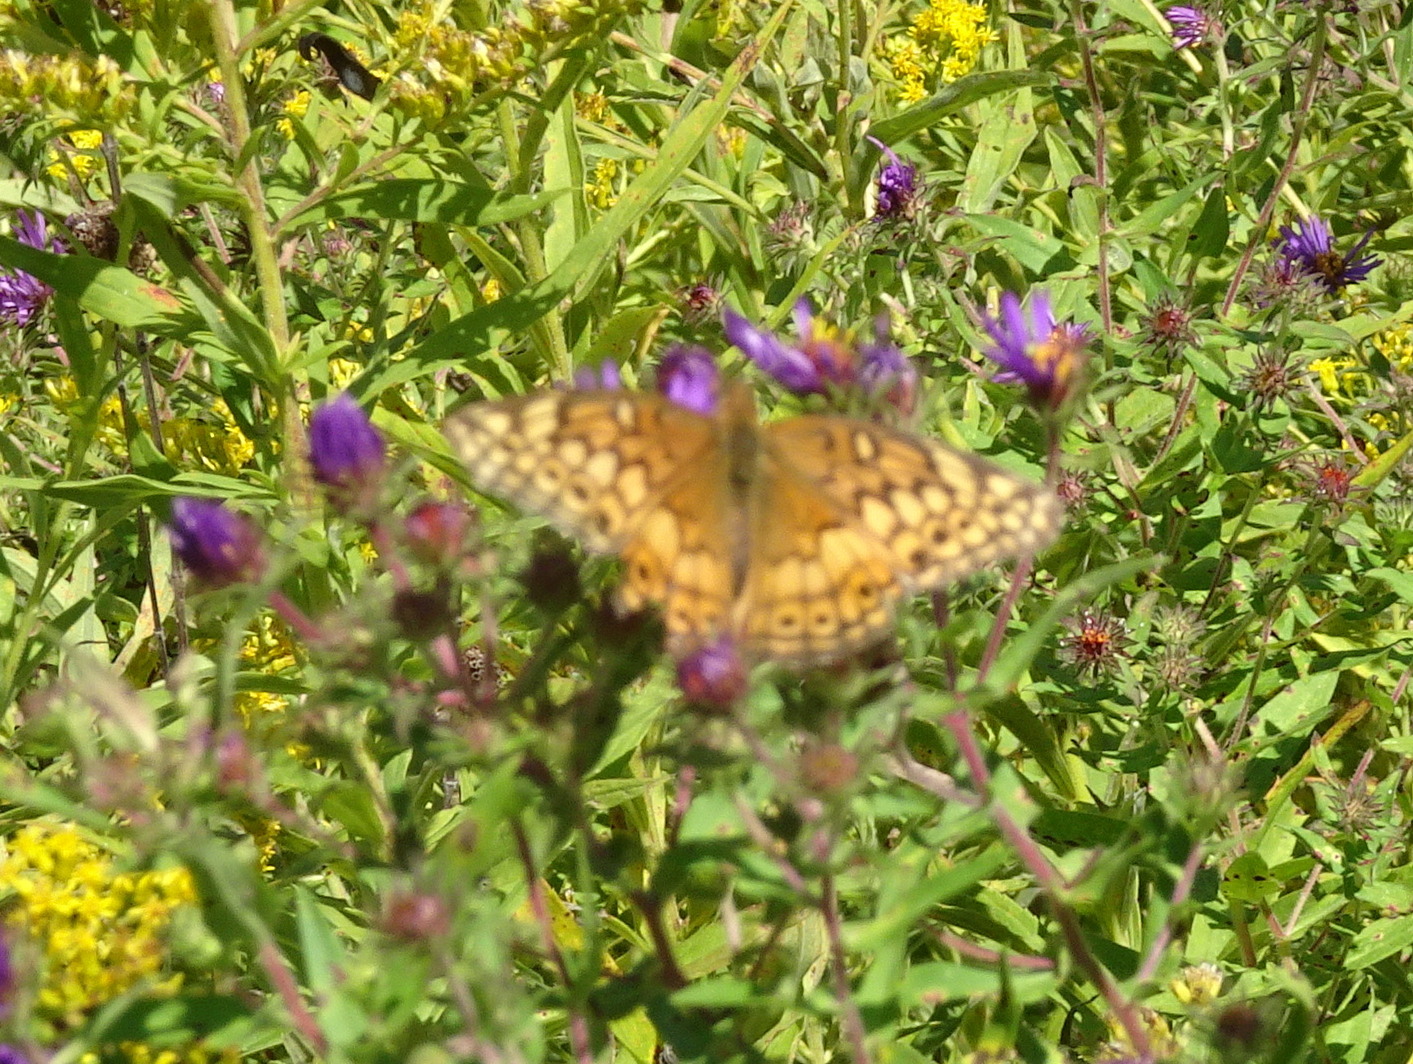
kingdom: Animalia
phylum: Arthropoda
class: Insecta
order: Lepidoptera
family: Nymphalidae
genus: Euptoieta
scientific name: Euptoieta claudia
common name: Variegated fritillary
